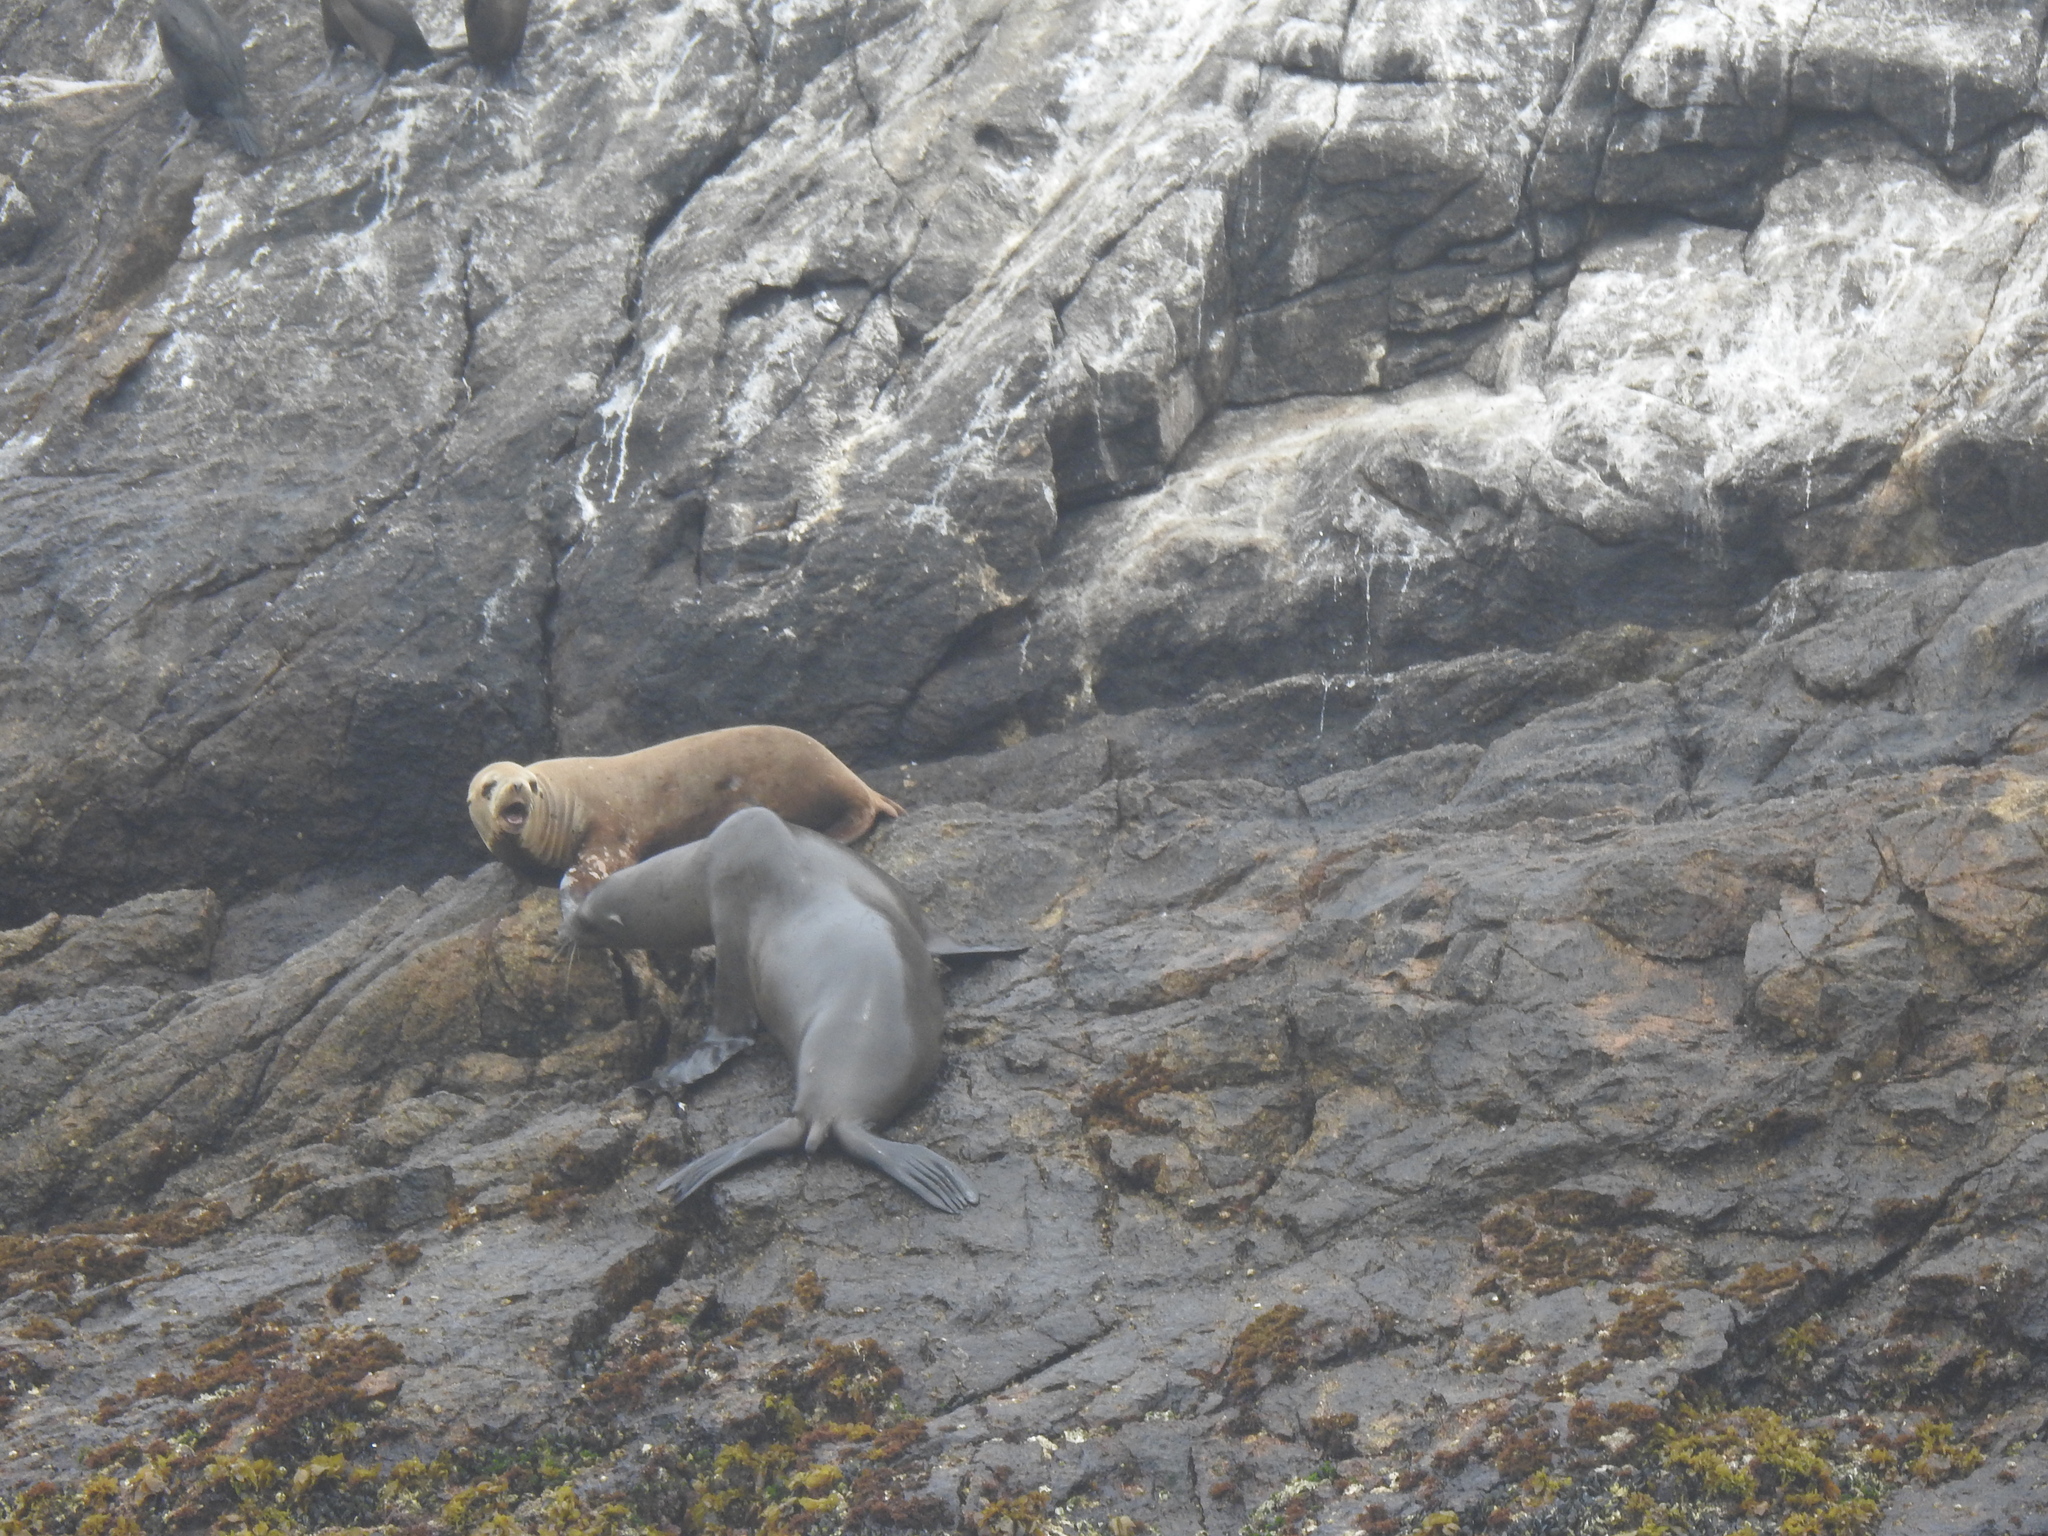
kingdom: Animalia
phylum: Chordata
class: Mammalia
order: Carnivora
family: Otariidae
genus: Zalophus
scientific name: Zalophus californianus
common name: California sea lion
